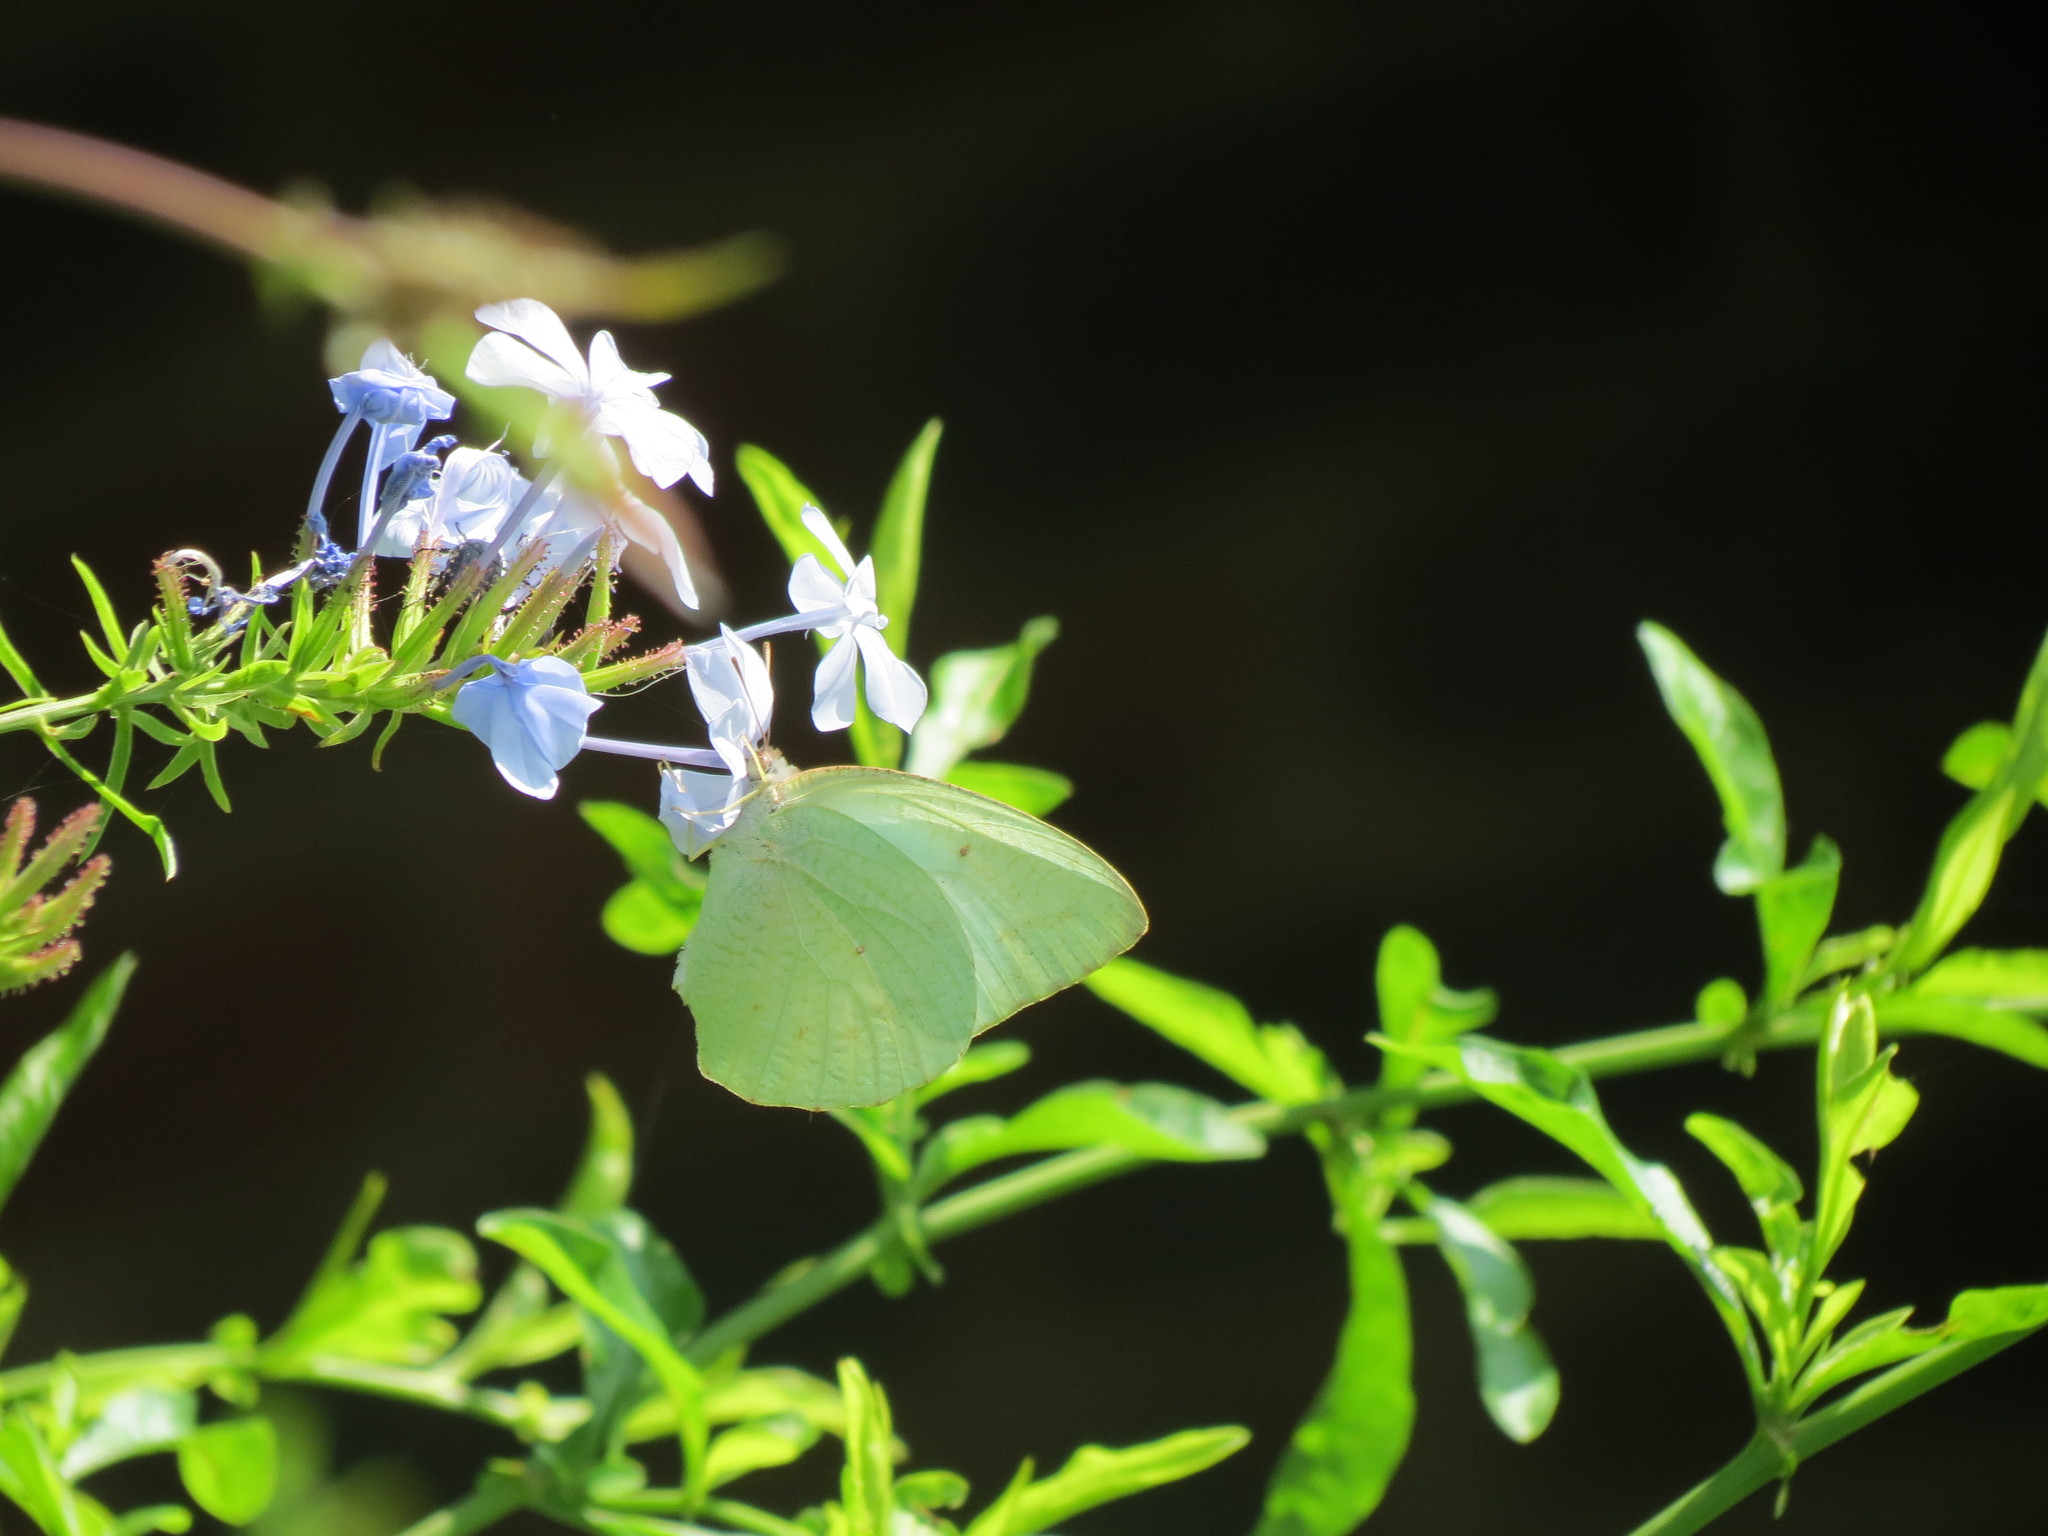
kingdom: Animalia
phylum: Arthropoda
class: Insecta
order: Lepidoptera
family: Pieridae
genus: Catopsilia
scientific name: Catopsilia florella
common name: African migrant
